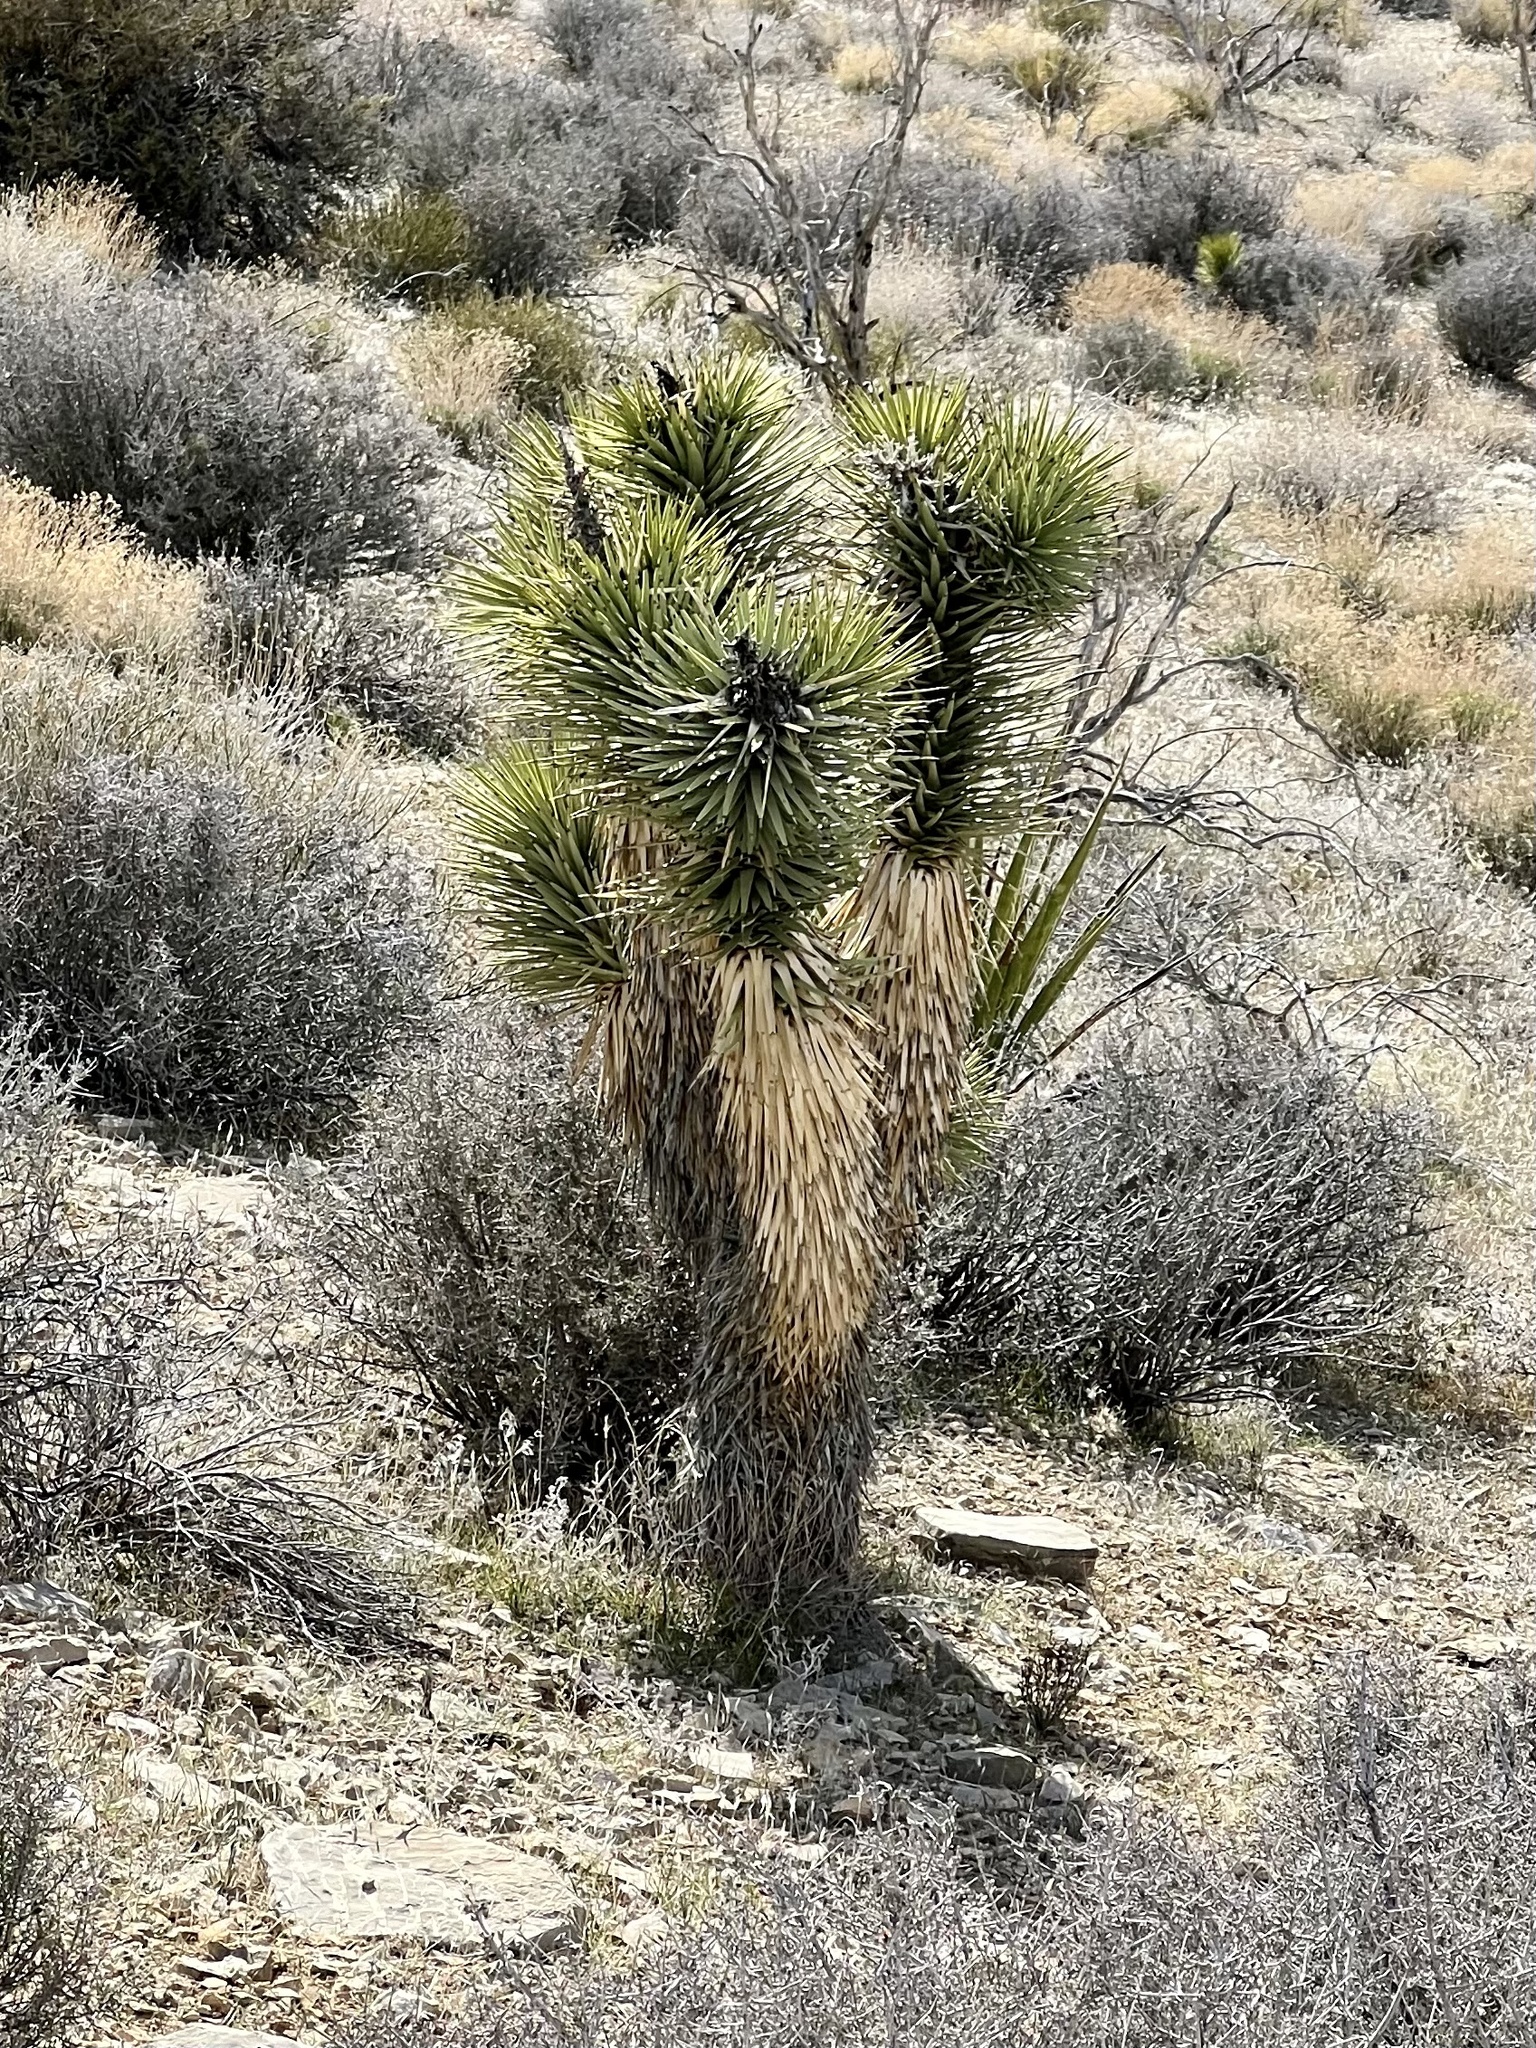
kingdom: Plantae
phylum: Tracheophyta
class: Liliopsida
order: Asparagales
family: Asparagaceae
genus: Yucca
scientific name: Yucca brevifolia
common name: Joshua tree
